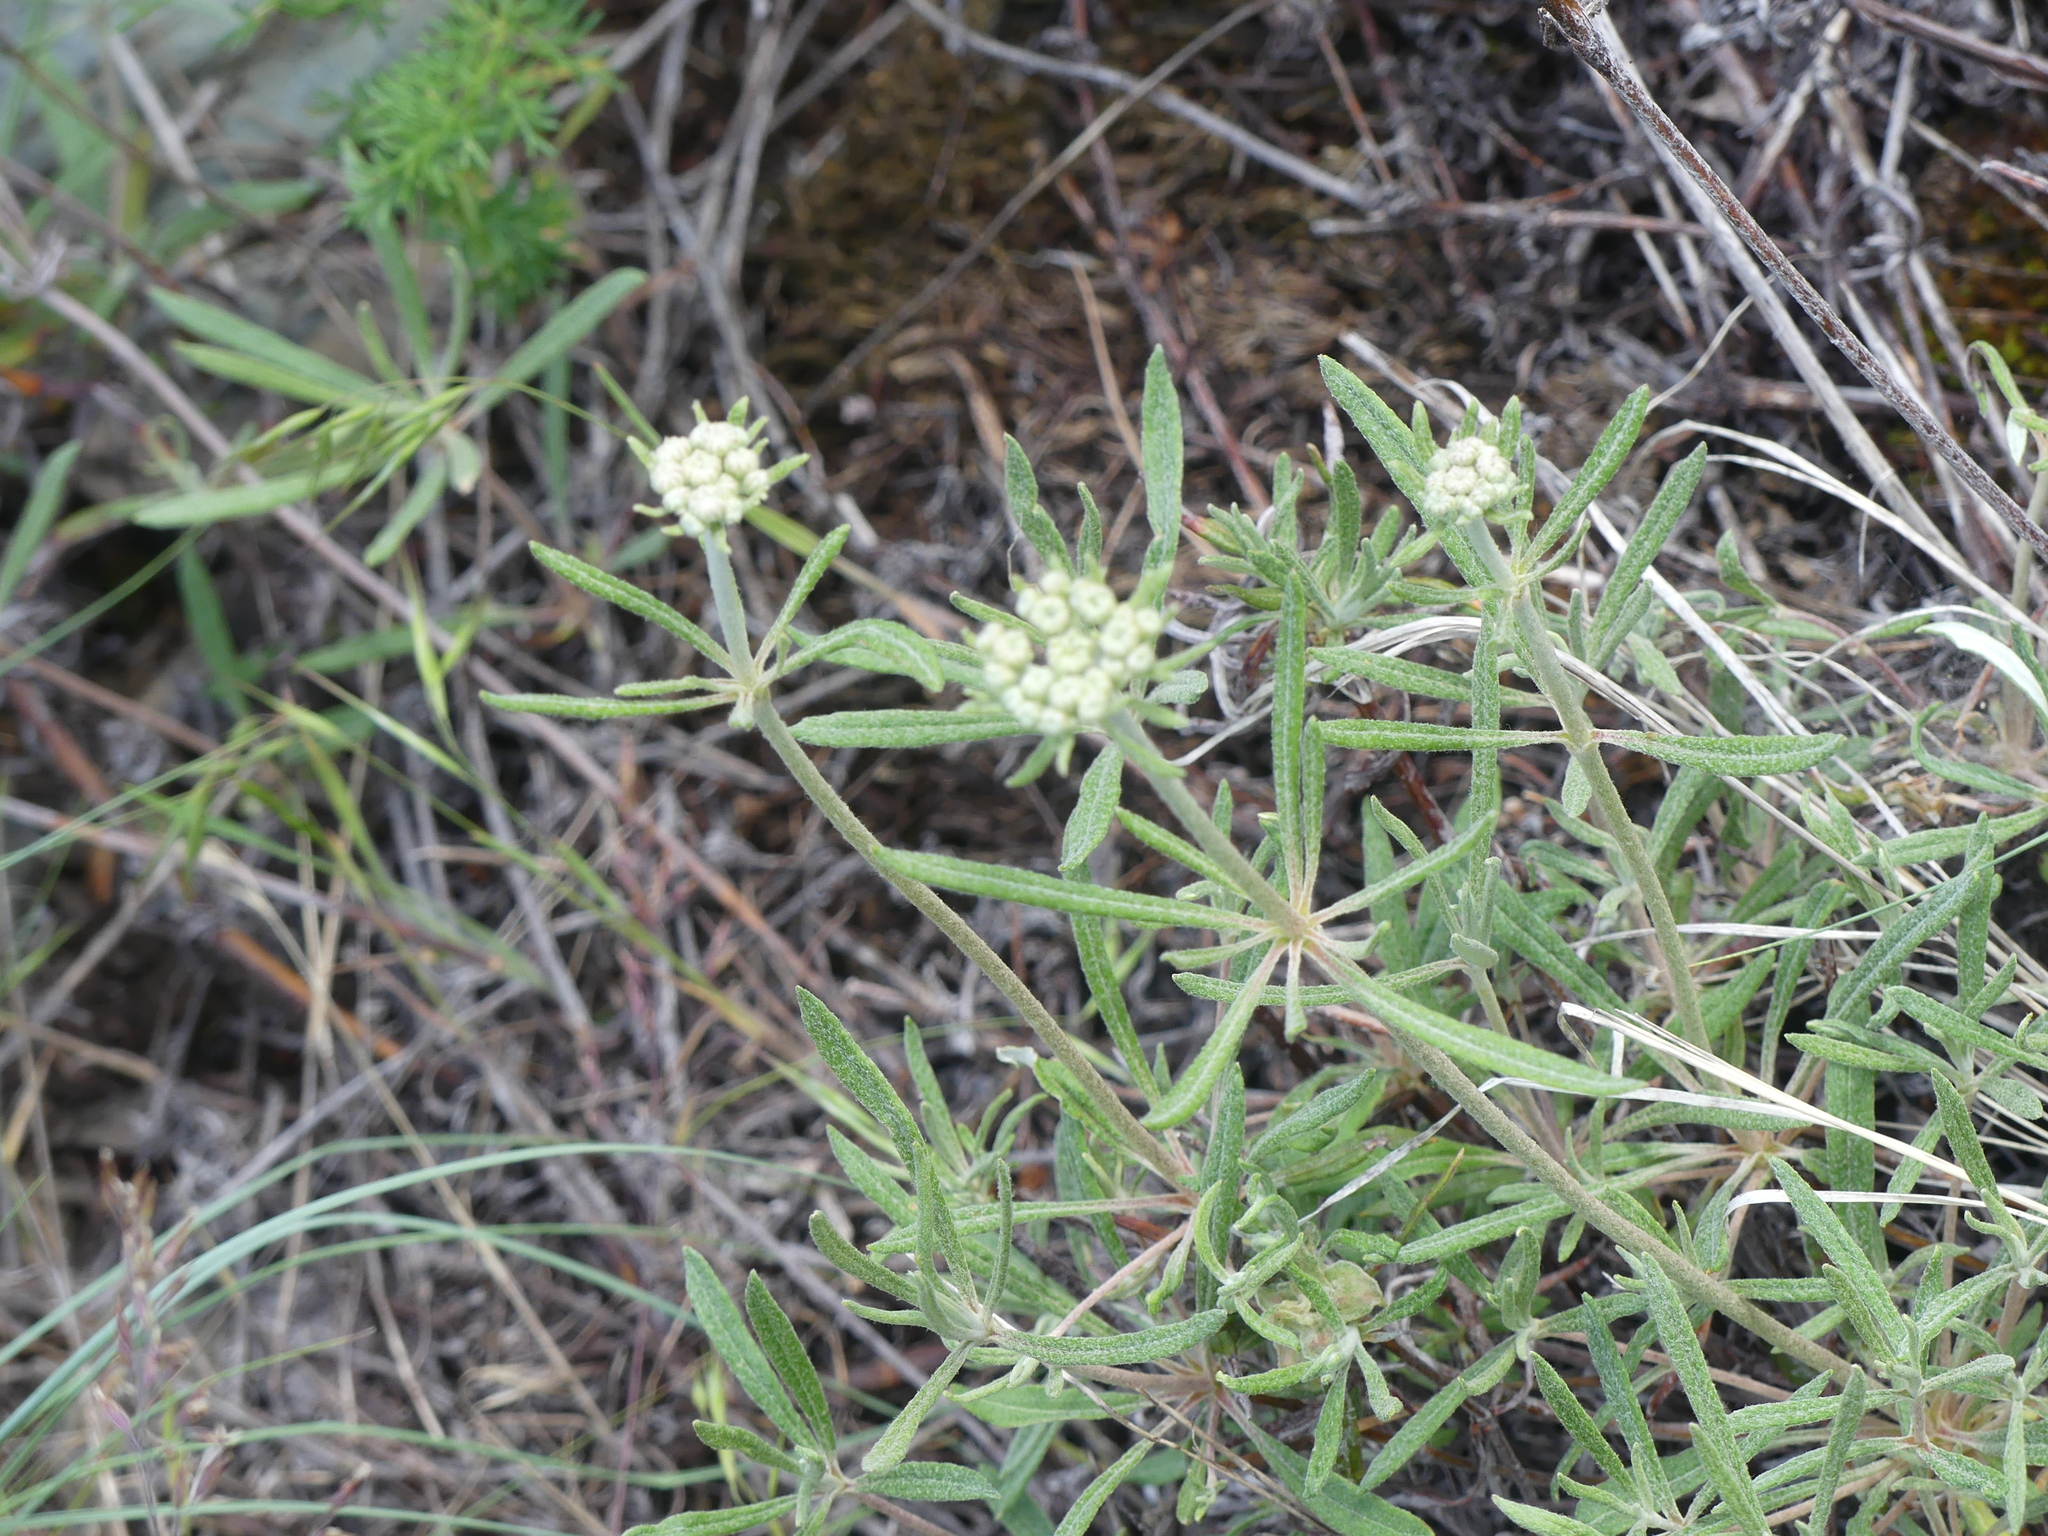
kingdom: Plantae
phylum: Tracheophyta
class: Magnoliopsida
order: Caryophyllales
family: Polygonaceae
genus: Eriogonum
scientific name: Eriogonum heracleoides
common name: Wyeth's buckwheat
